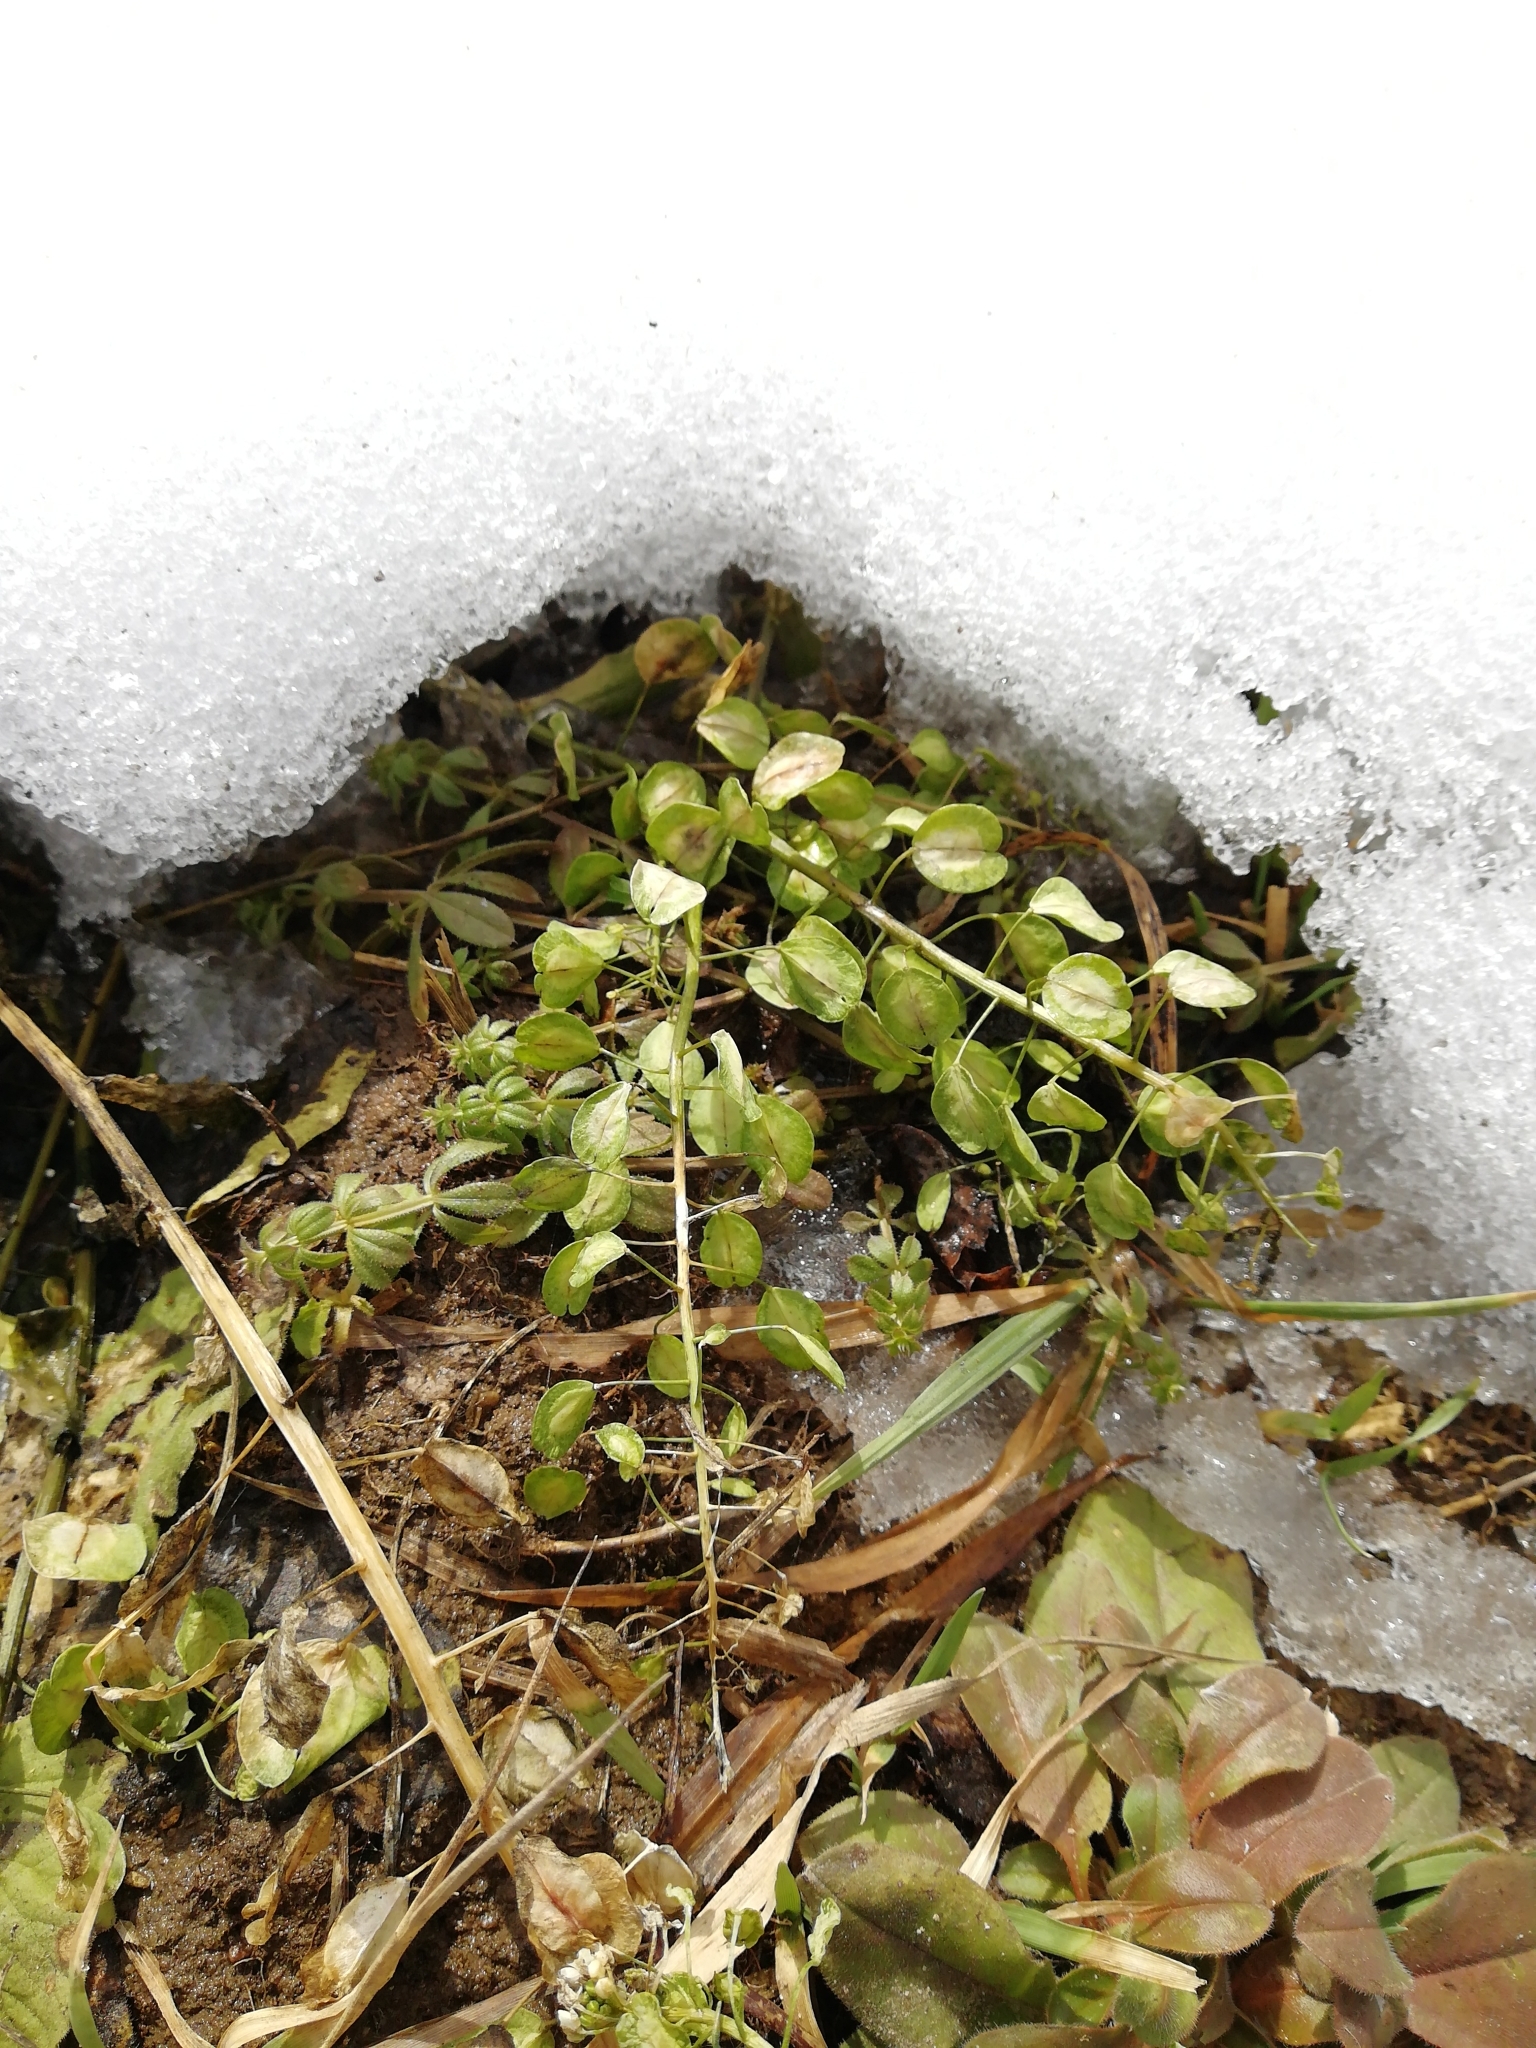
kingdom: Plantae
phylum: Tracheophyta
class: Magnoliopsida
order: Brassicales
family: Brassicaceae
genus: Thlaspi
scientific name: Thlaspi arvense
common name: Field pennycress
